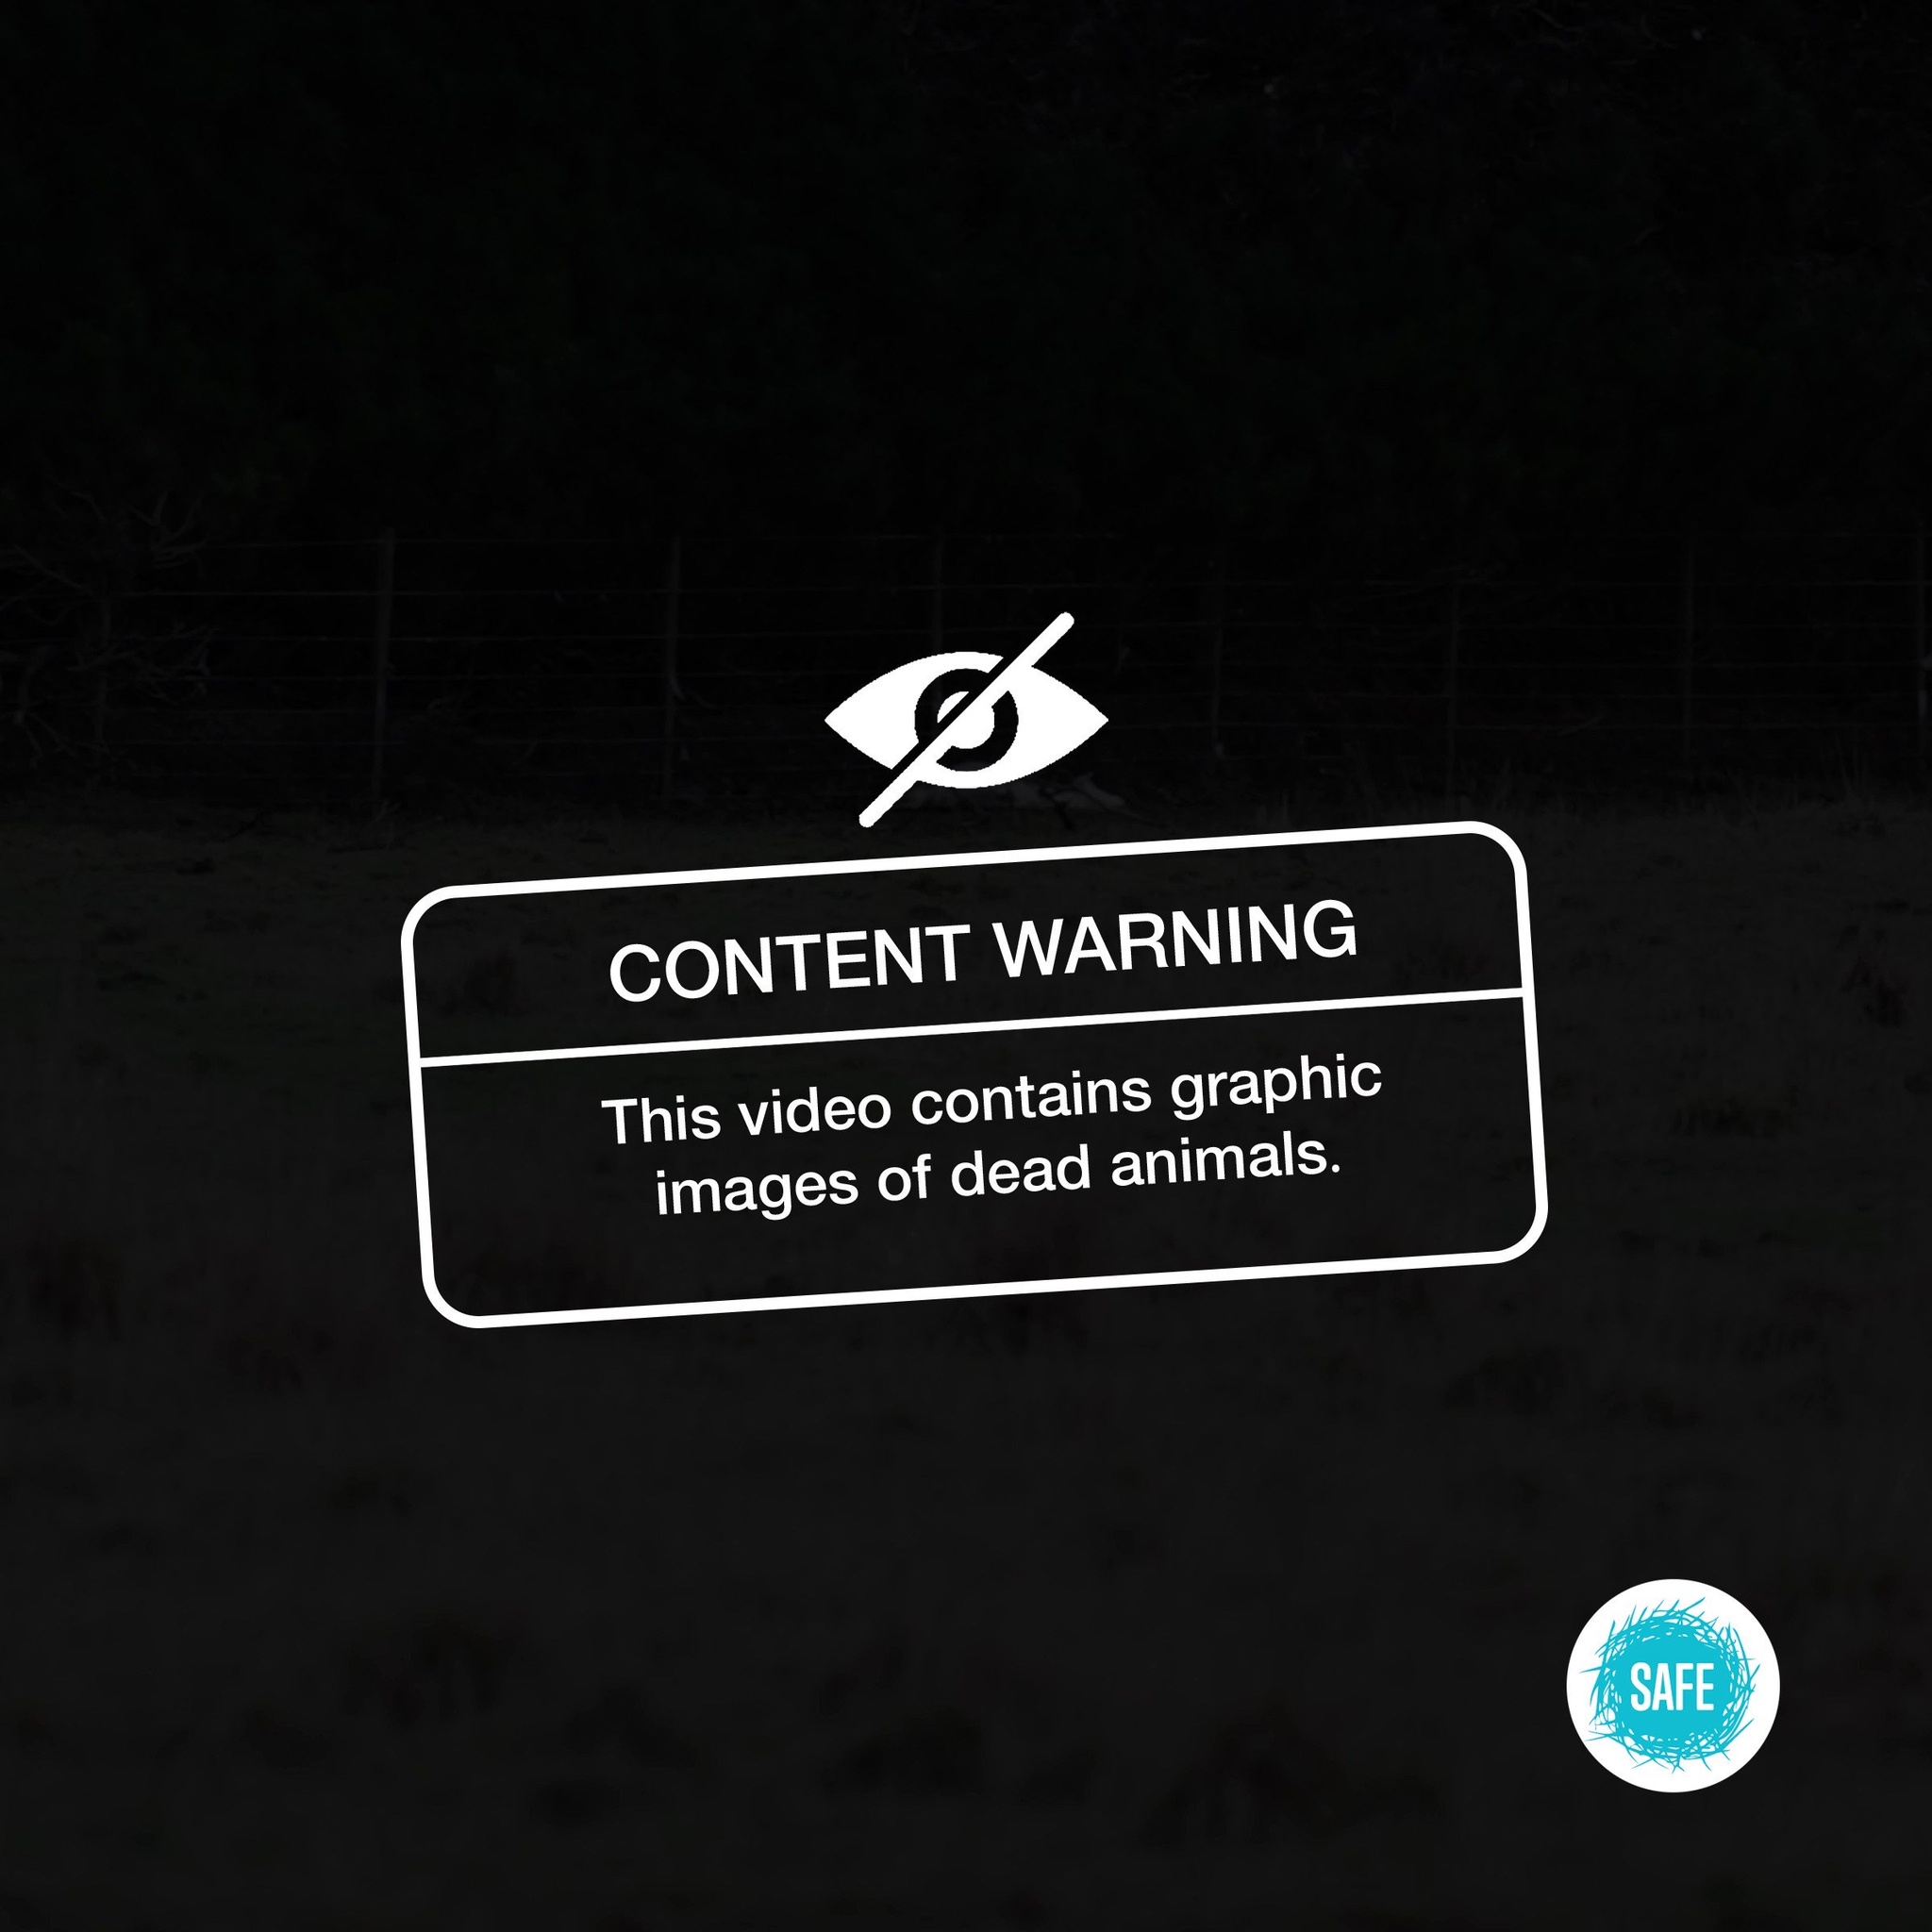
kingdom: Animalia
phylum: Chordata
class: Mammalia
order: Carnivora
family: Canidae
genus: Vulpes
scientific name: Vulpes vulpes
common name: Red fox
